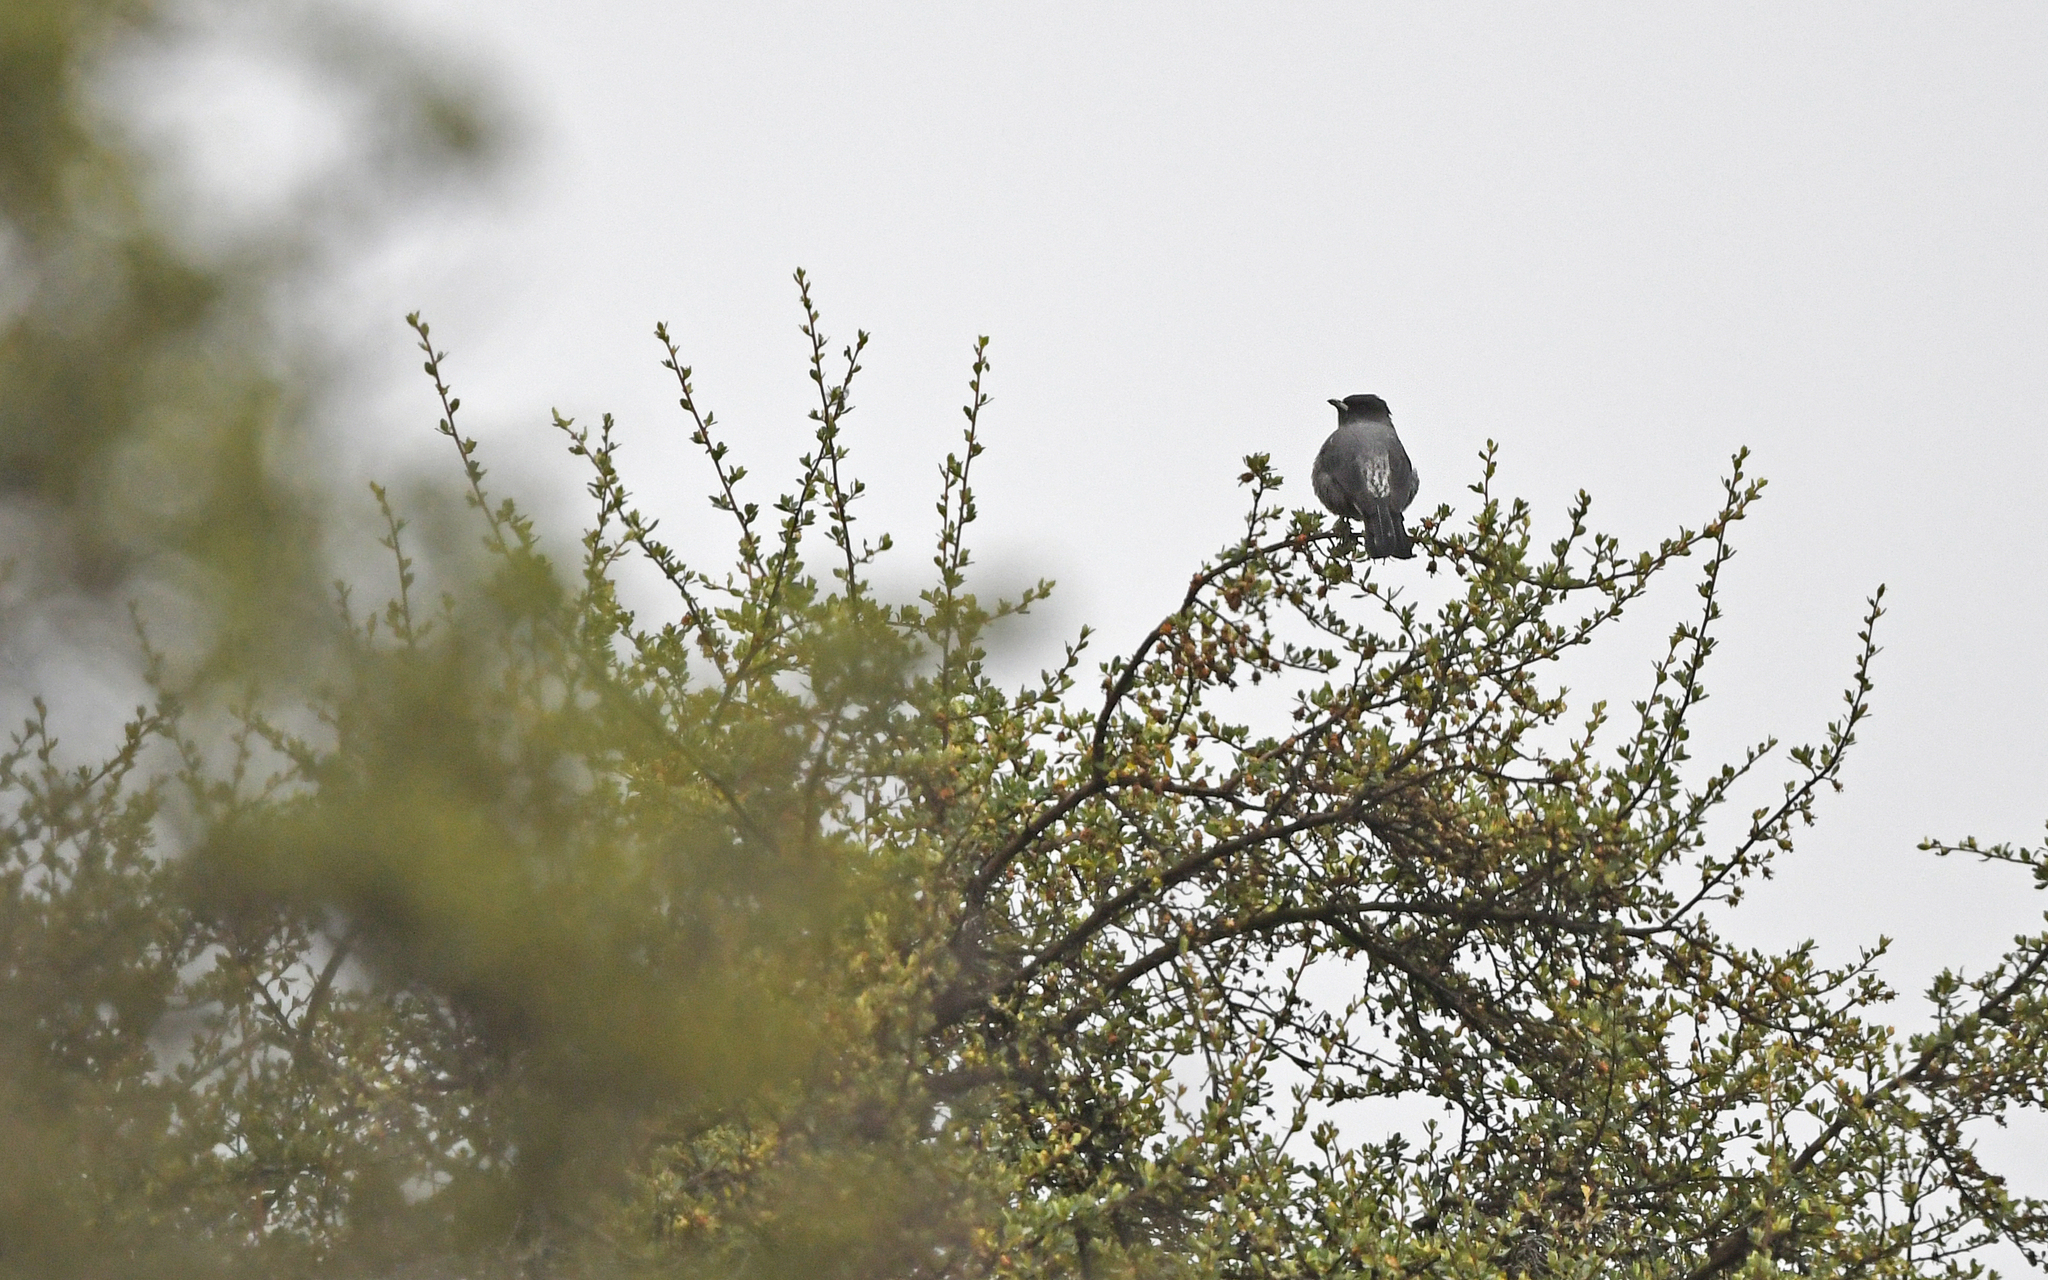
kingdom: Animalia
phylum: Chordata
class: Aves
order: Passeriformes
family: Cotingidae
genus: Ampelion
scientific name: Ampelion rubrocristatus
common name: Red-crested cotinga
